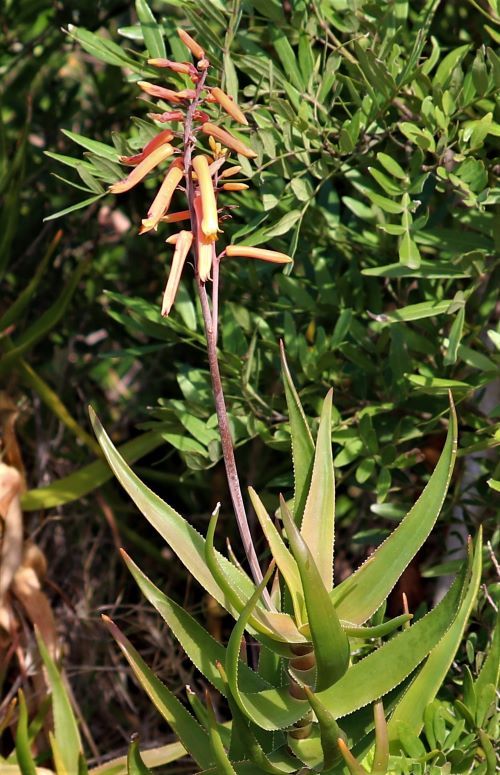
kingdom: Plantae
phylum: Tracheophyta
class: Liliopsida
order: Asparagales
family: Asphodelaceae
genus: Aloiampelos
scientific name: Aloiampelos gracilis
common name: Scrambling aloe
